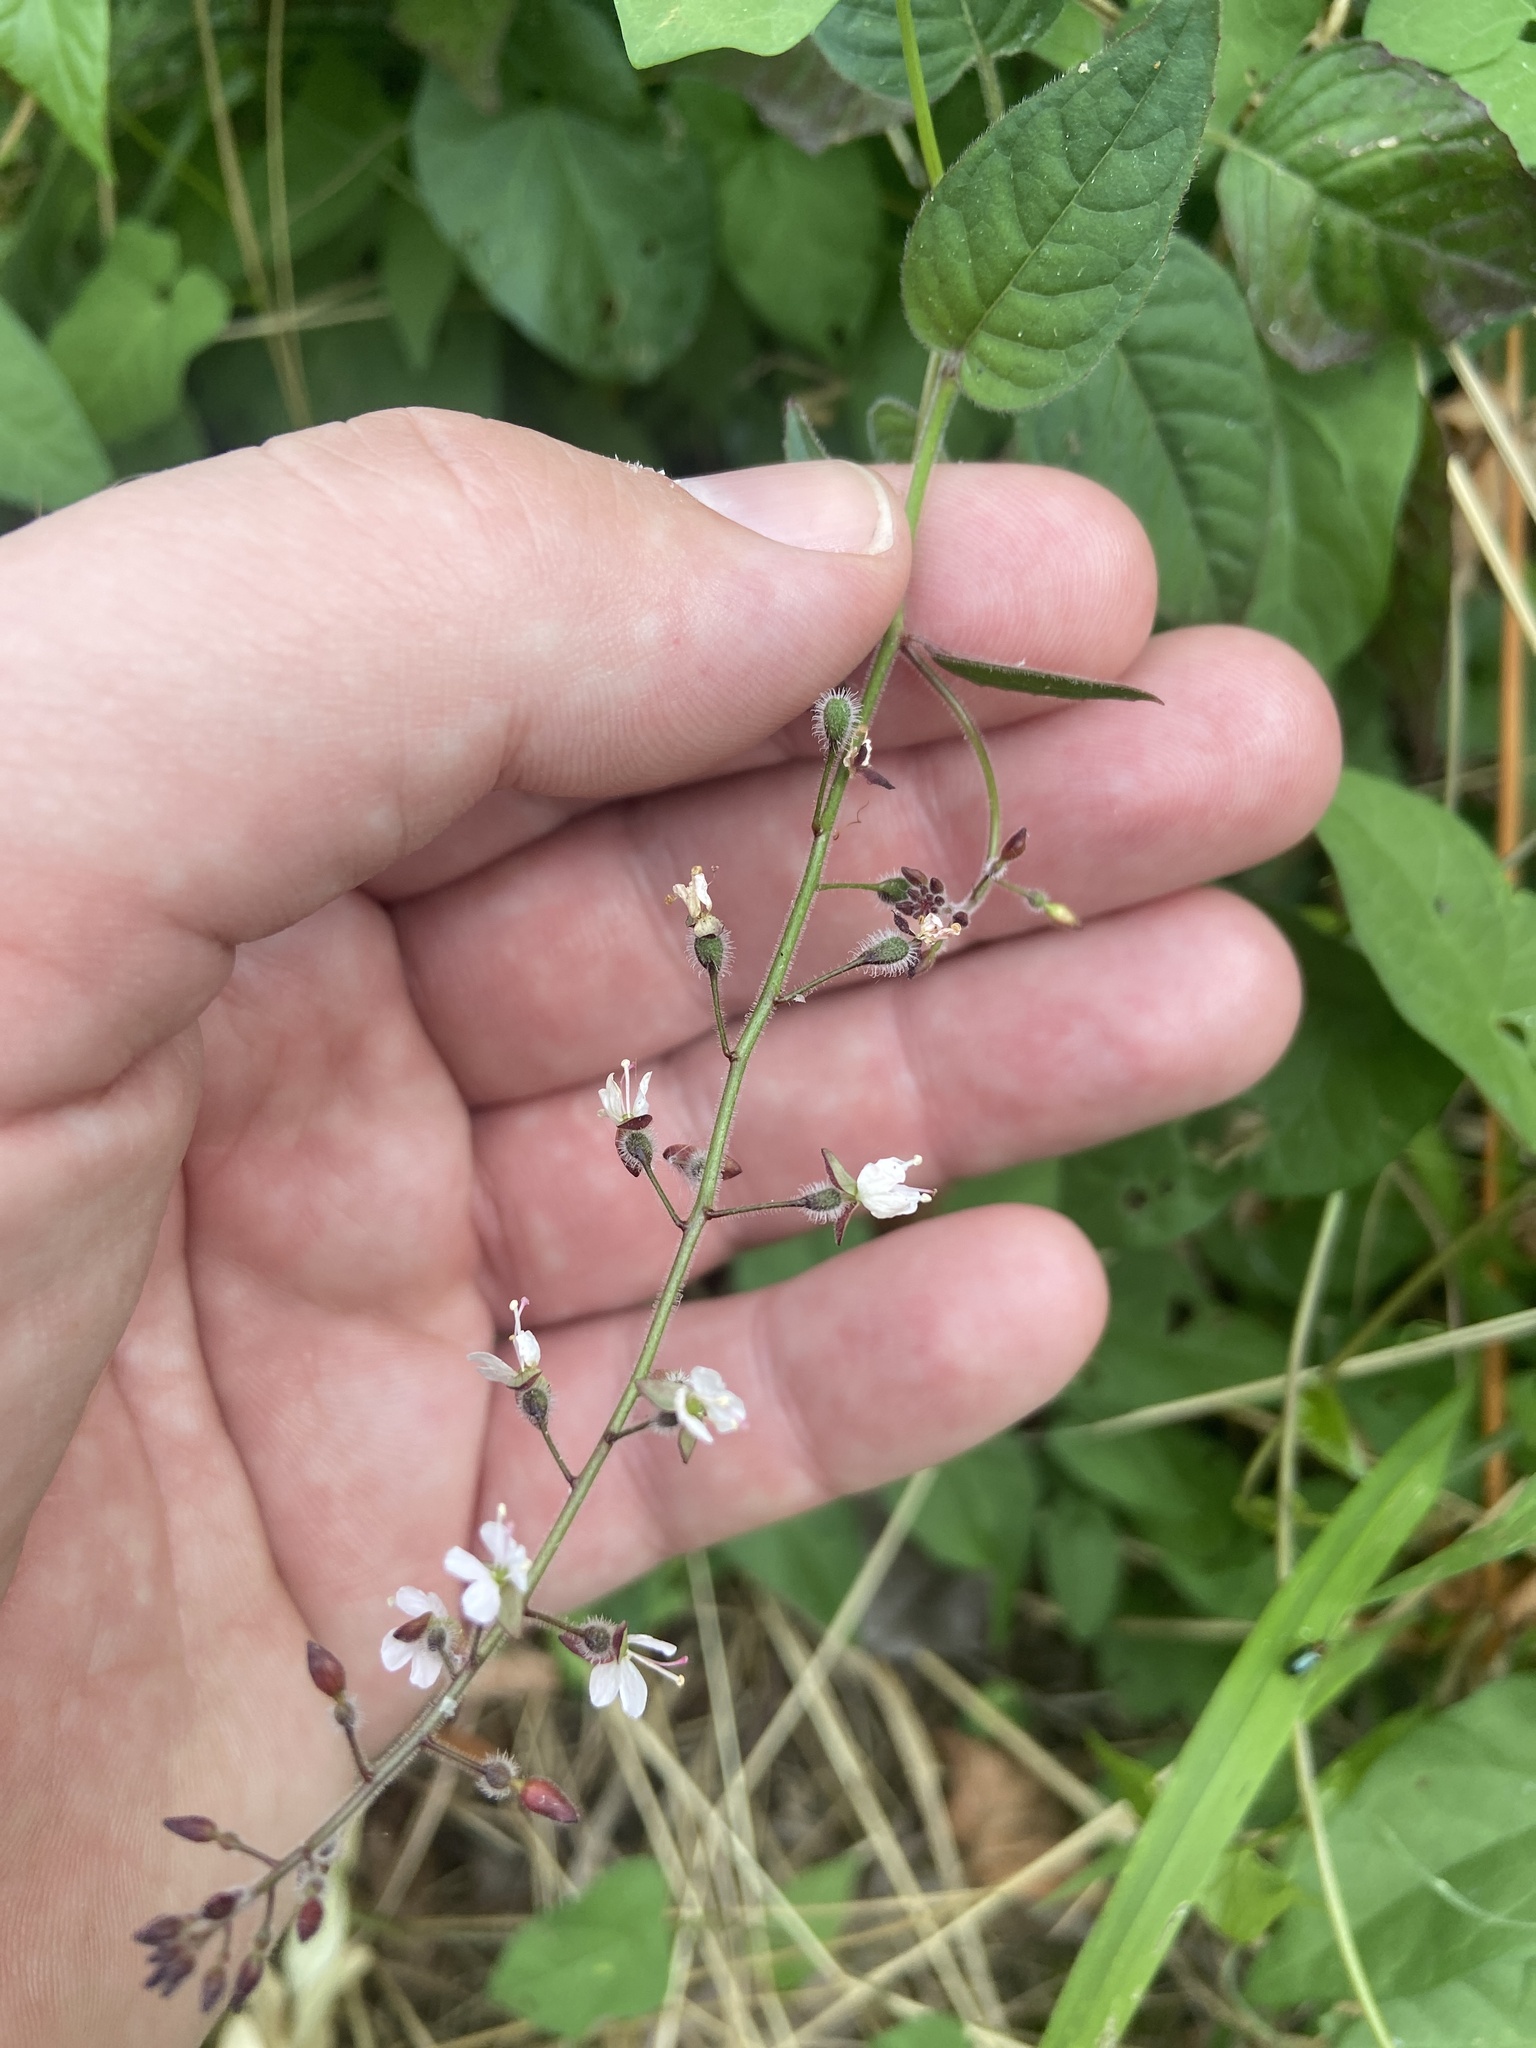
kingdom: Plantae
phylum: Tracheophyta
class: Magnoliopsida
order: Myrtales
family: Onagraceae
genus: Circaea
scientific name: Circaea lutetiana
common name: Enchanter's-nightshade
